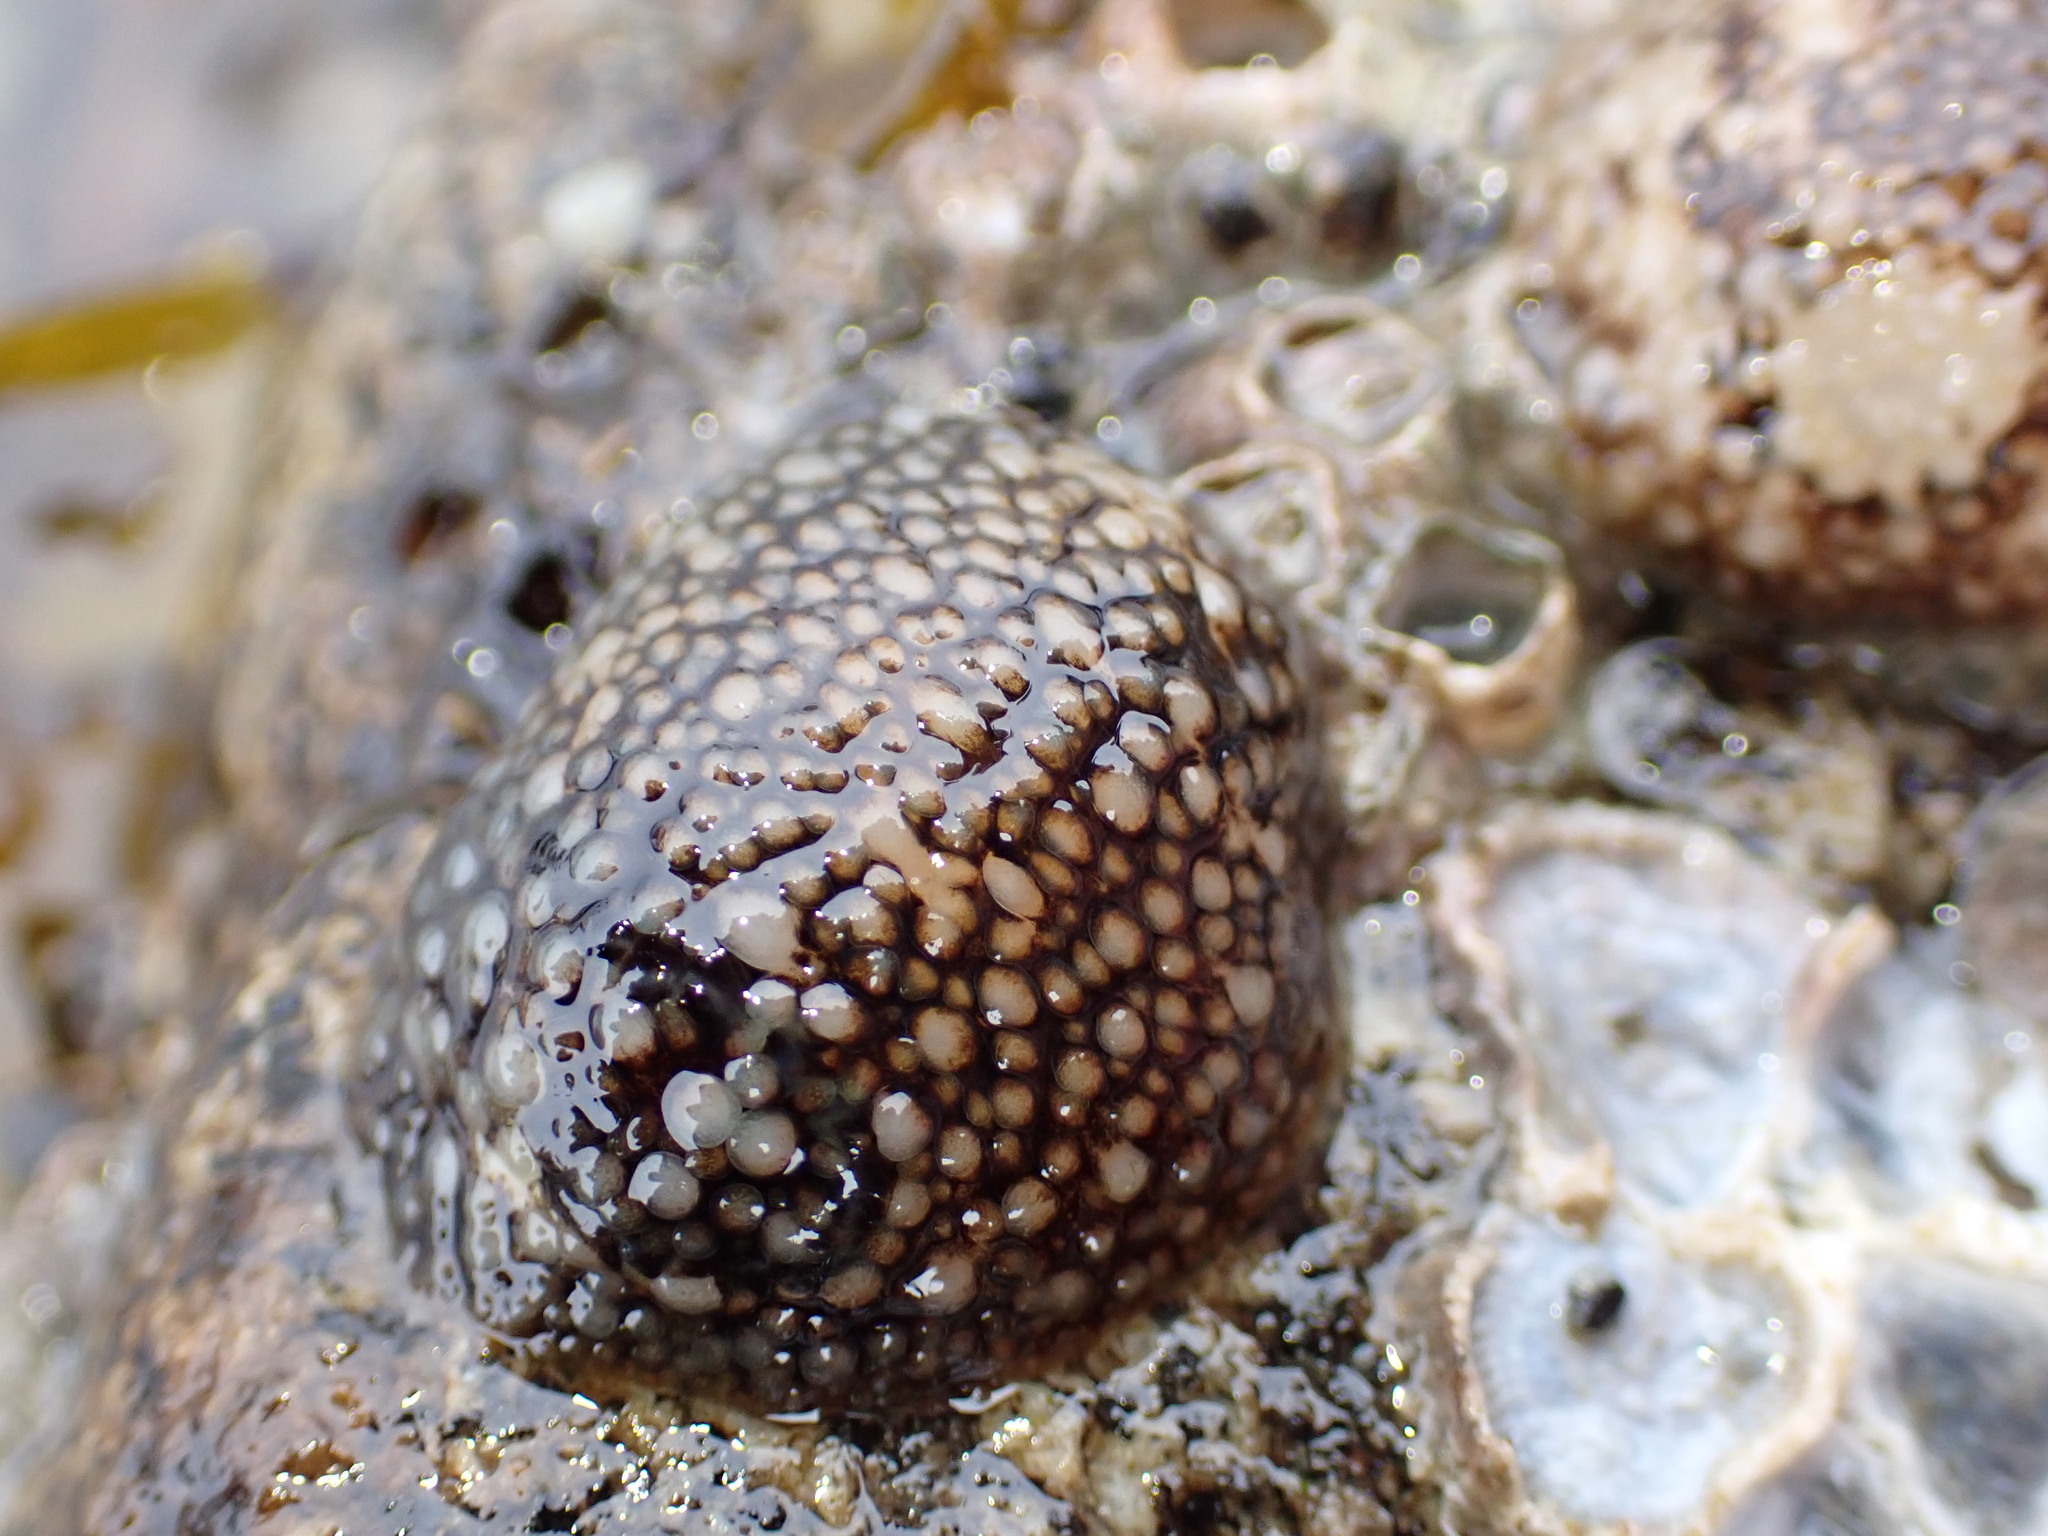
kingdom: Animalia
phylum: Mollusca
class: Gastropoda
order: Nudibranchia
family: Onchidorididae
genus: Onchidoris
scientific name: Onchidoris bilamellata
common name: Barnacle-eating onchidoris
